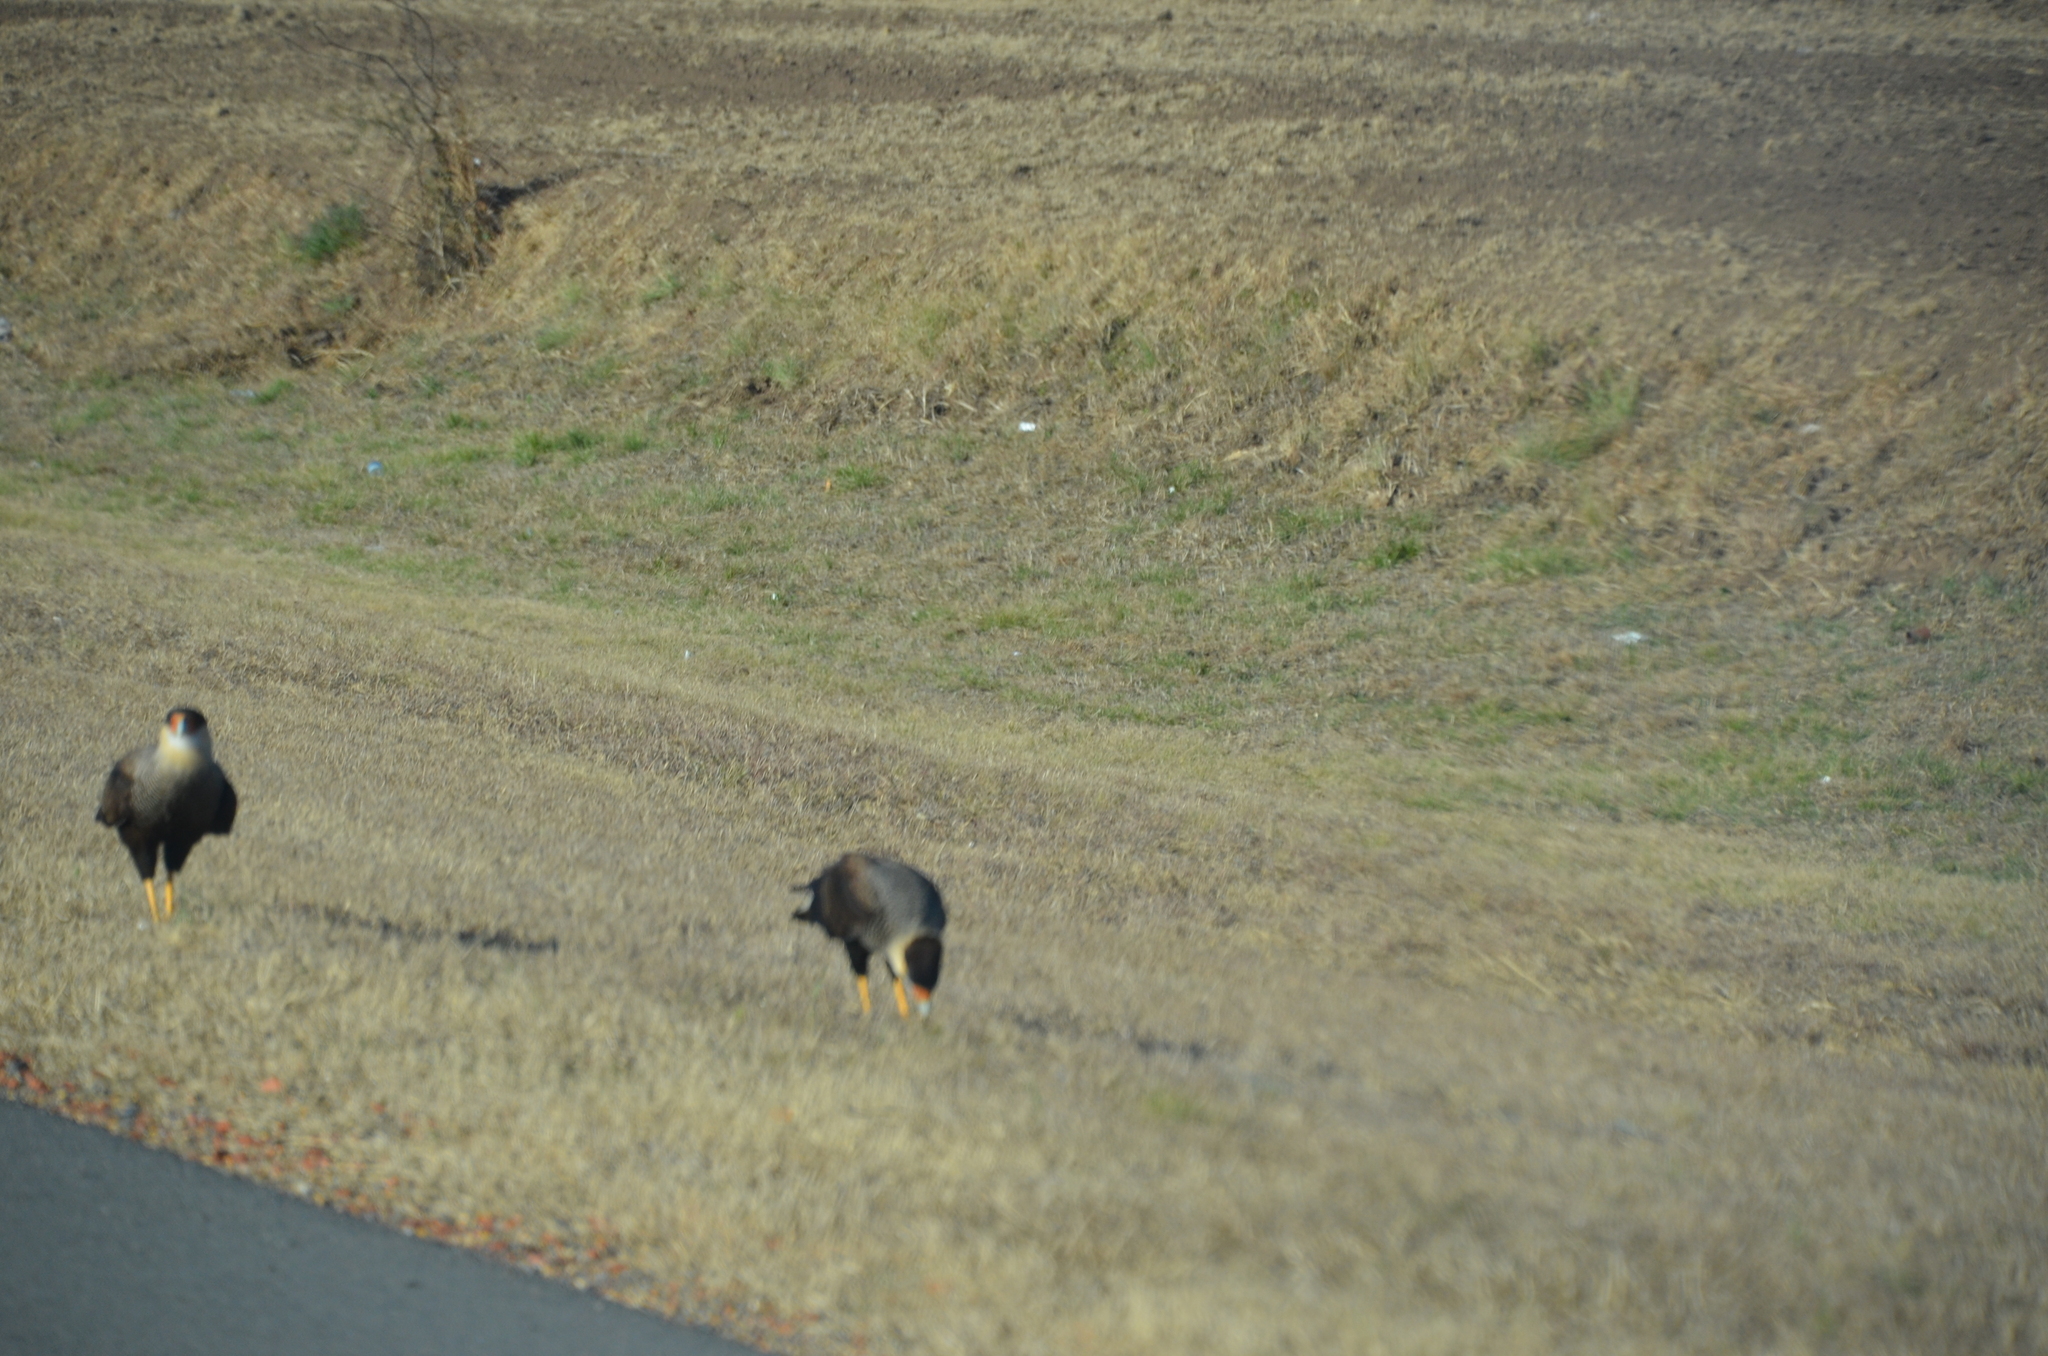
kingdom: Animalia
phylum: Chordata
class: Aves
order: Falconiformes
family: Falconidae
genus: Caracara
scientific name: Caracara plancus
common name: Southern caracara
